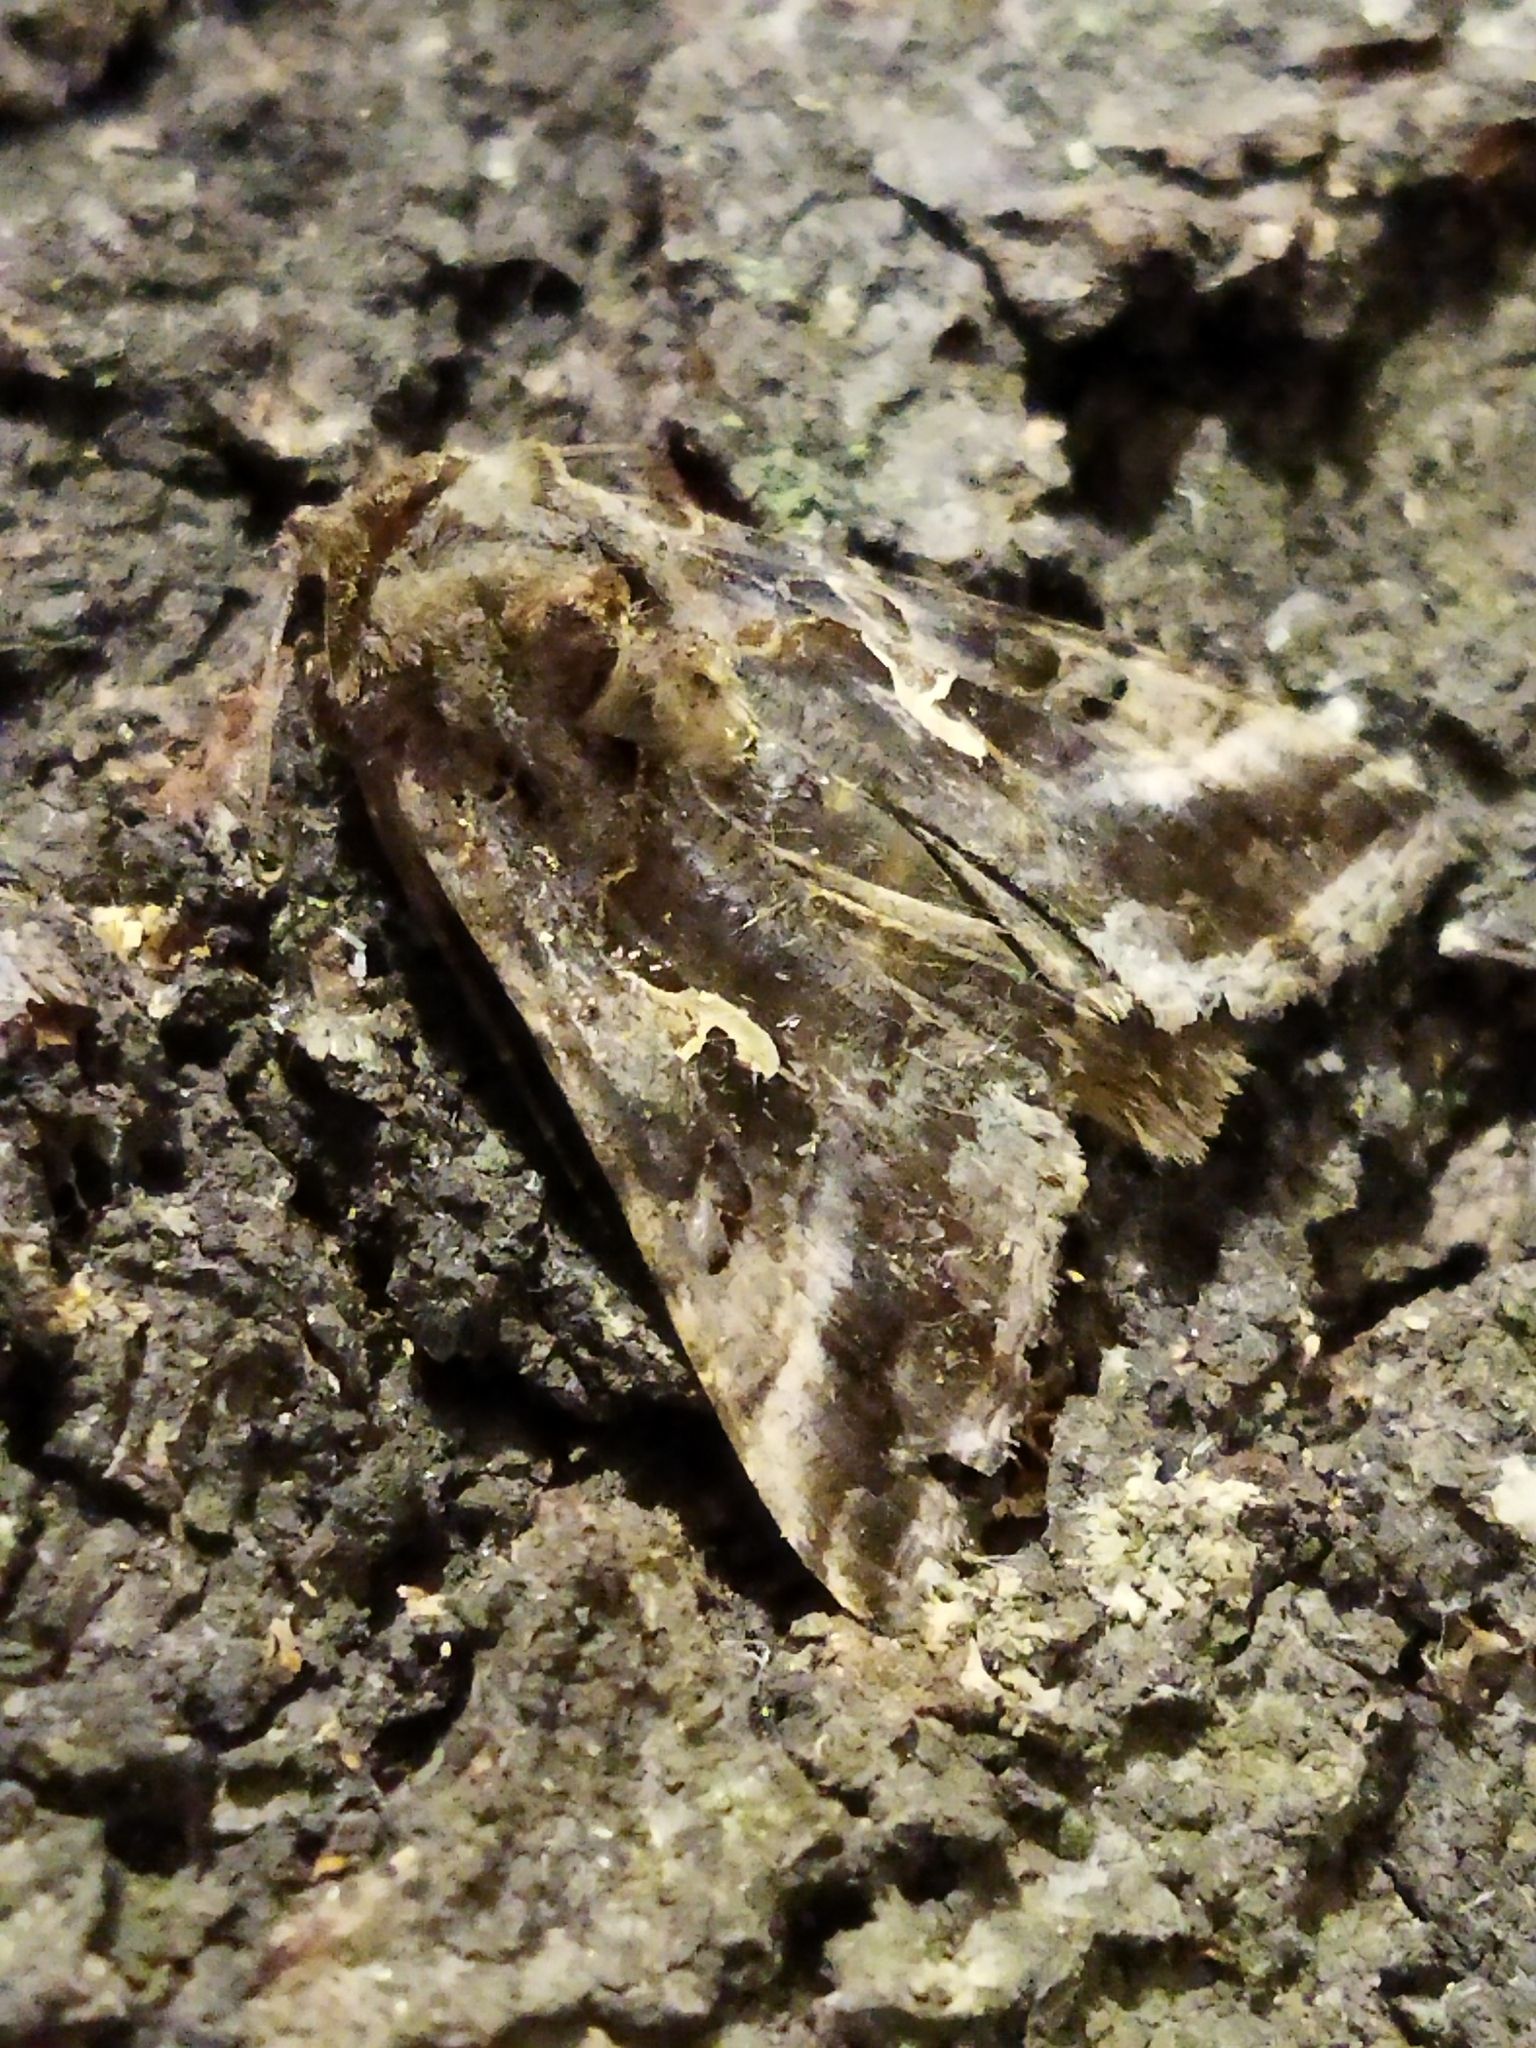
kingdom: Animalia
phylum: Arthropoda
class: Insecta
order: Lepidoptera
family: Noctuidae
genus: Autographa
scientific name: Autographa gamma
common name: Silver y
